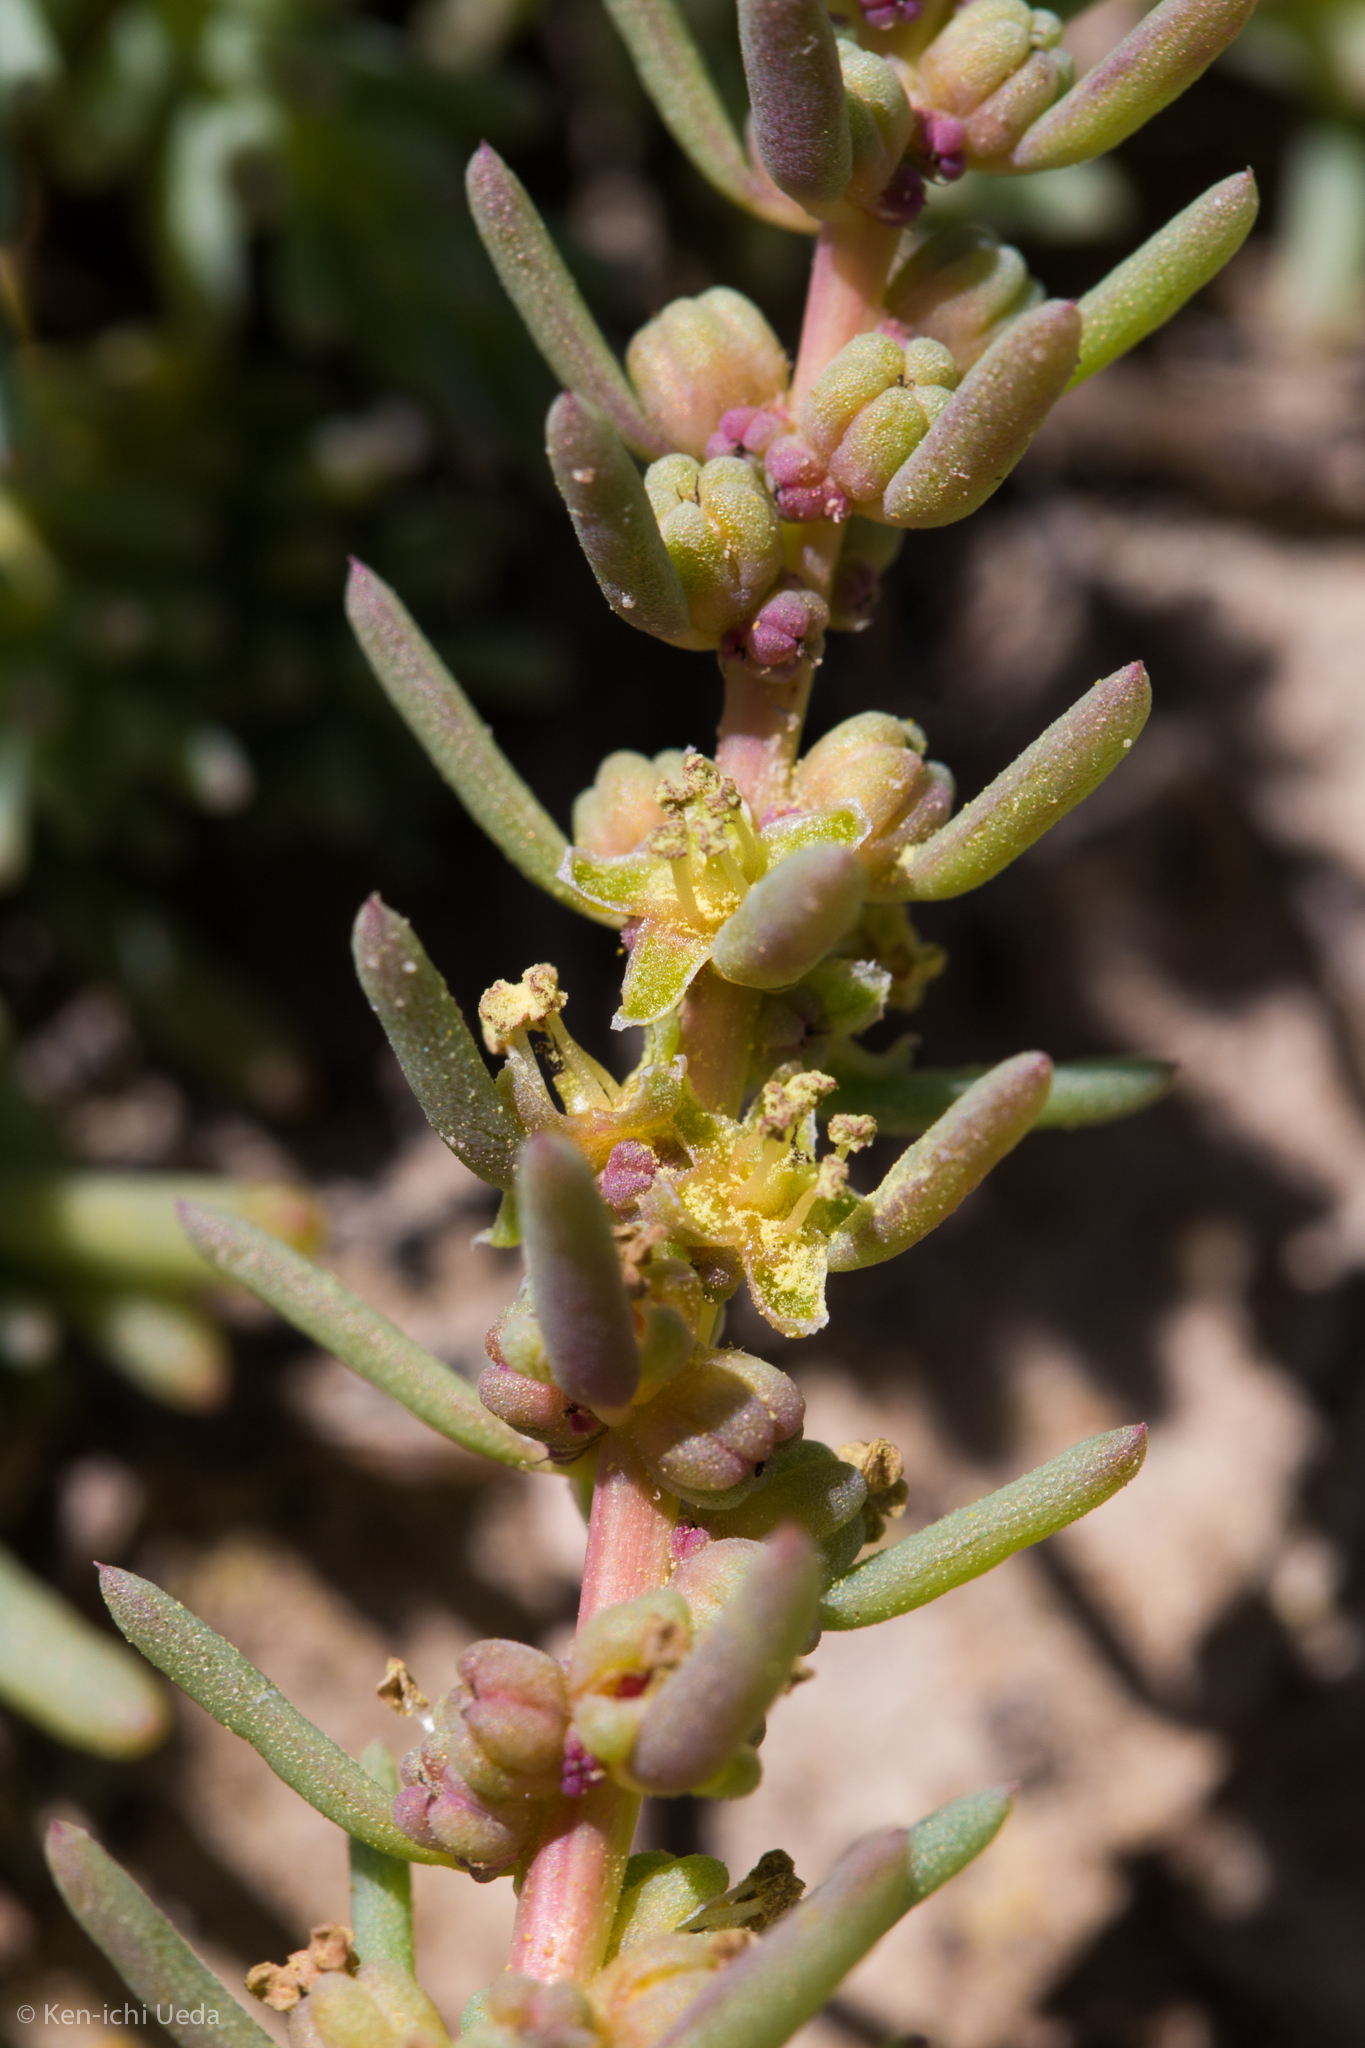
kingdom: Plantae
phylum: Tracheophyta
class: Magnoliopsida
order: Caryophyllales
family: Amaranthaceae
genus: Suaeda
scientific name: Suaeda nigra
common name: Bush seepweed
